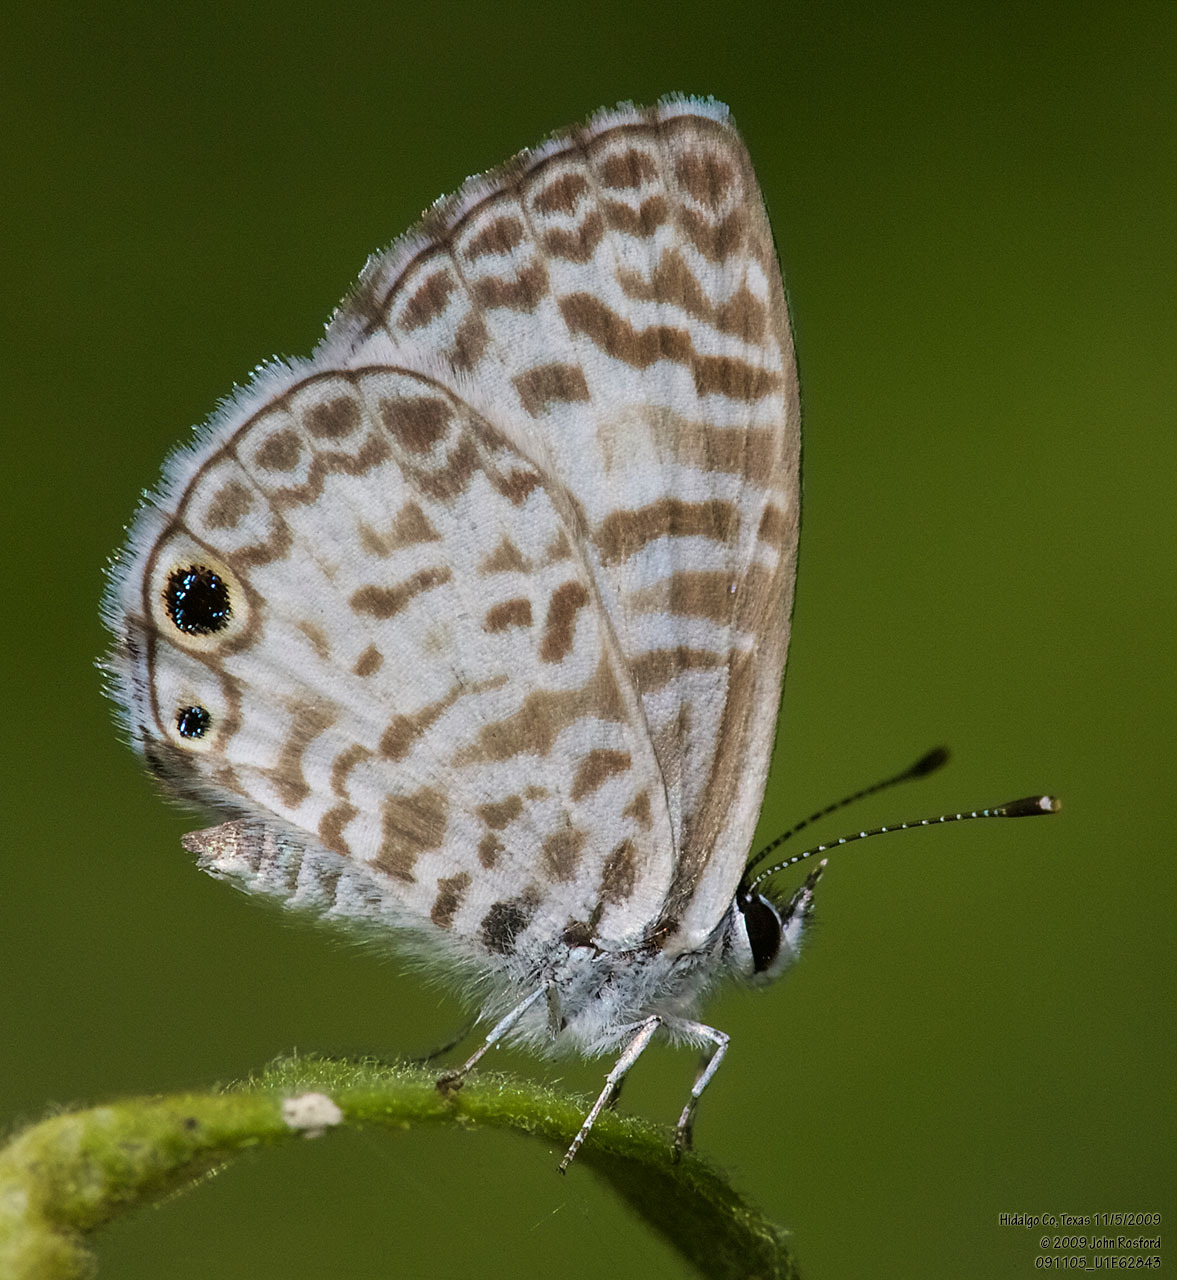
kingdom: Animalia
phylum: Arthropoda
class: Insecta
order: Lepidoptera
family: Lycaenidae
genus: Leptotes
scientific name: Leptotes cassius
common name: Cassius blue
